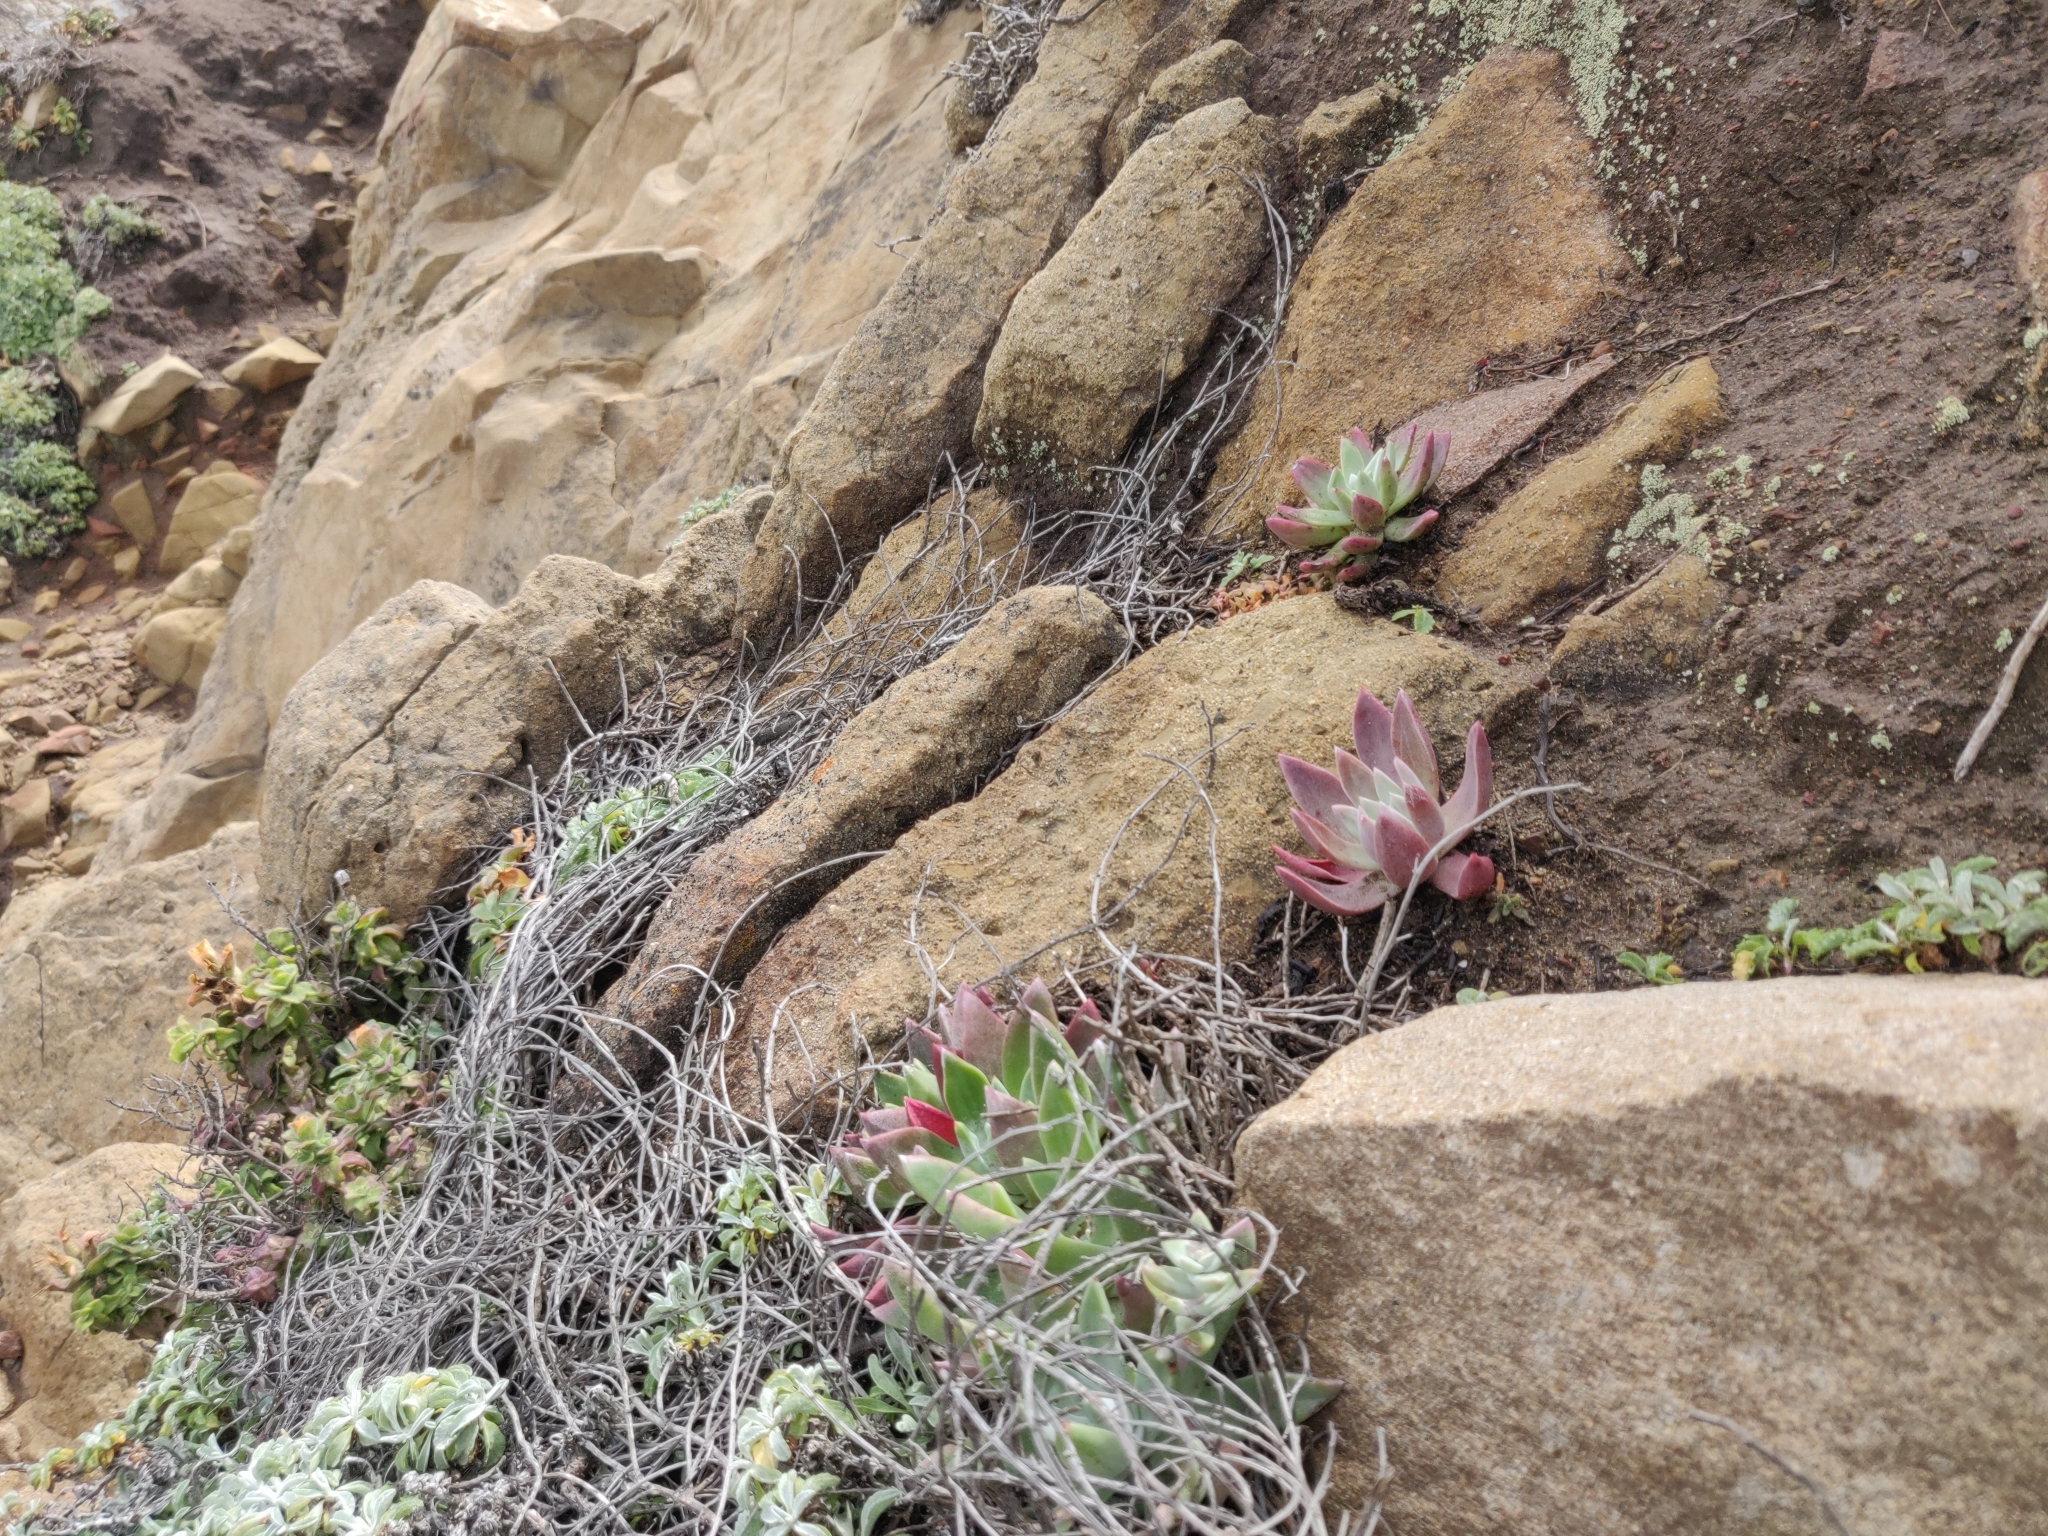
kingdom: Plantae
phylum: Tracheophyta
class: Magnoliopsida
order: Saxifragales
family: Crassulaceae
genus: Dudleya
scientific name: Dudleya caespitosa
